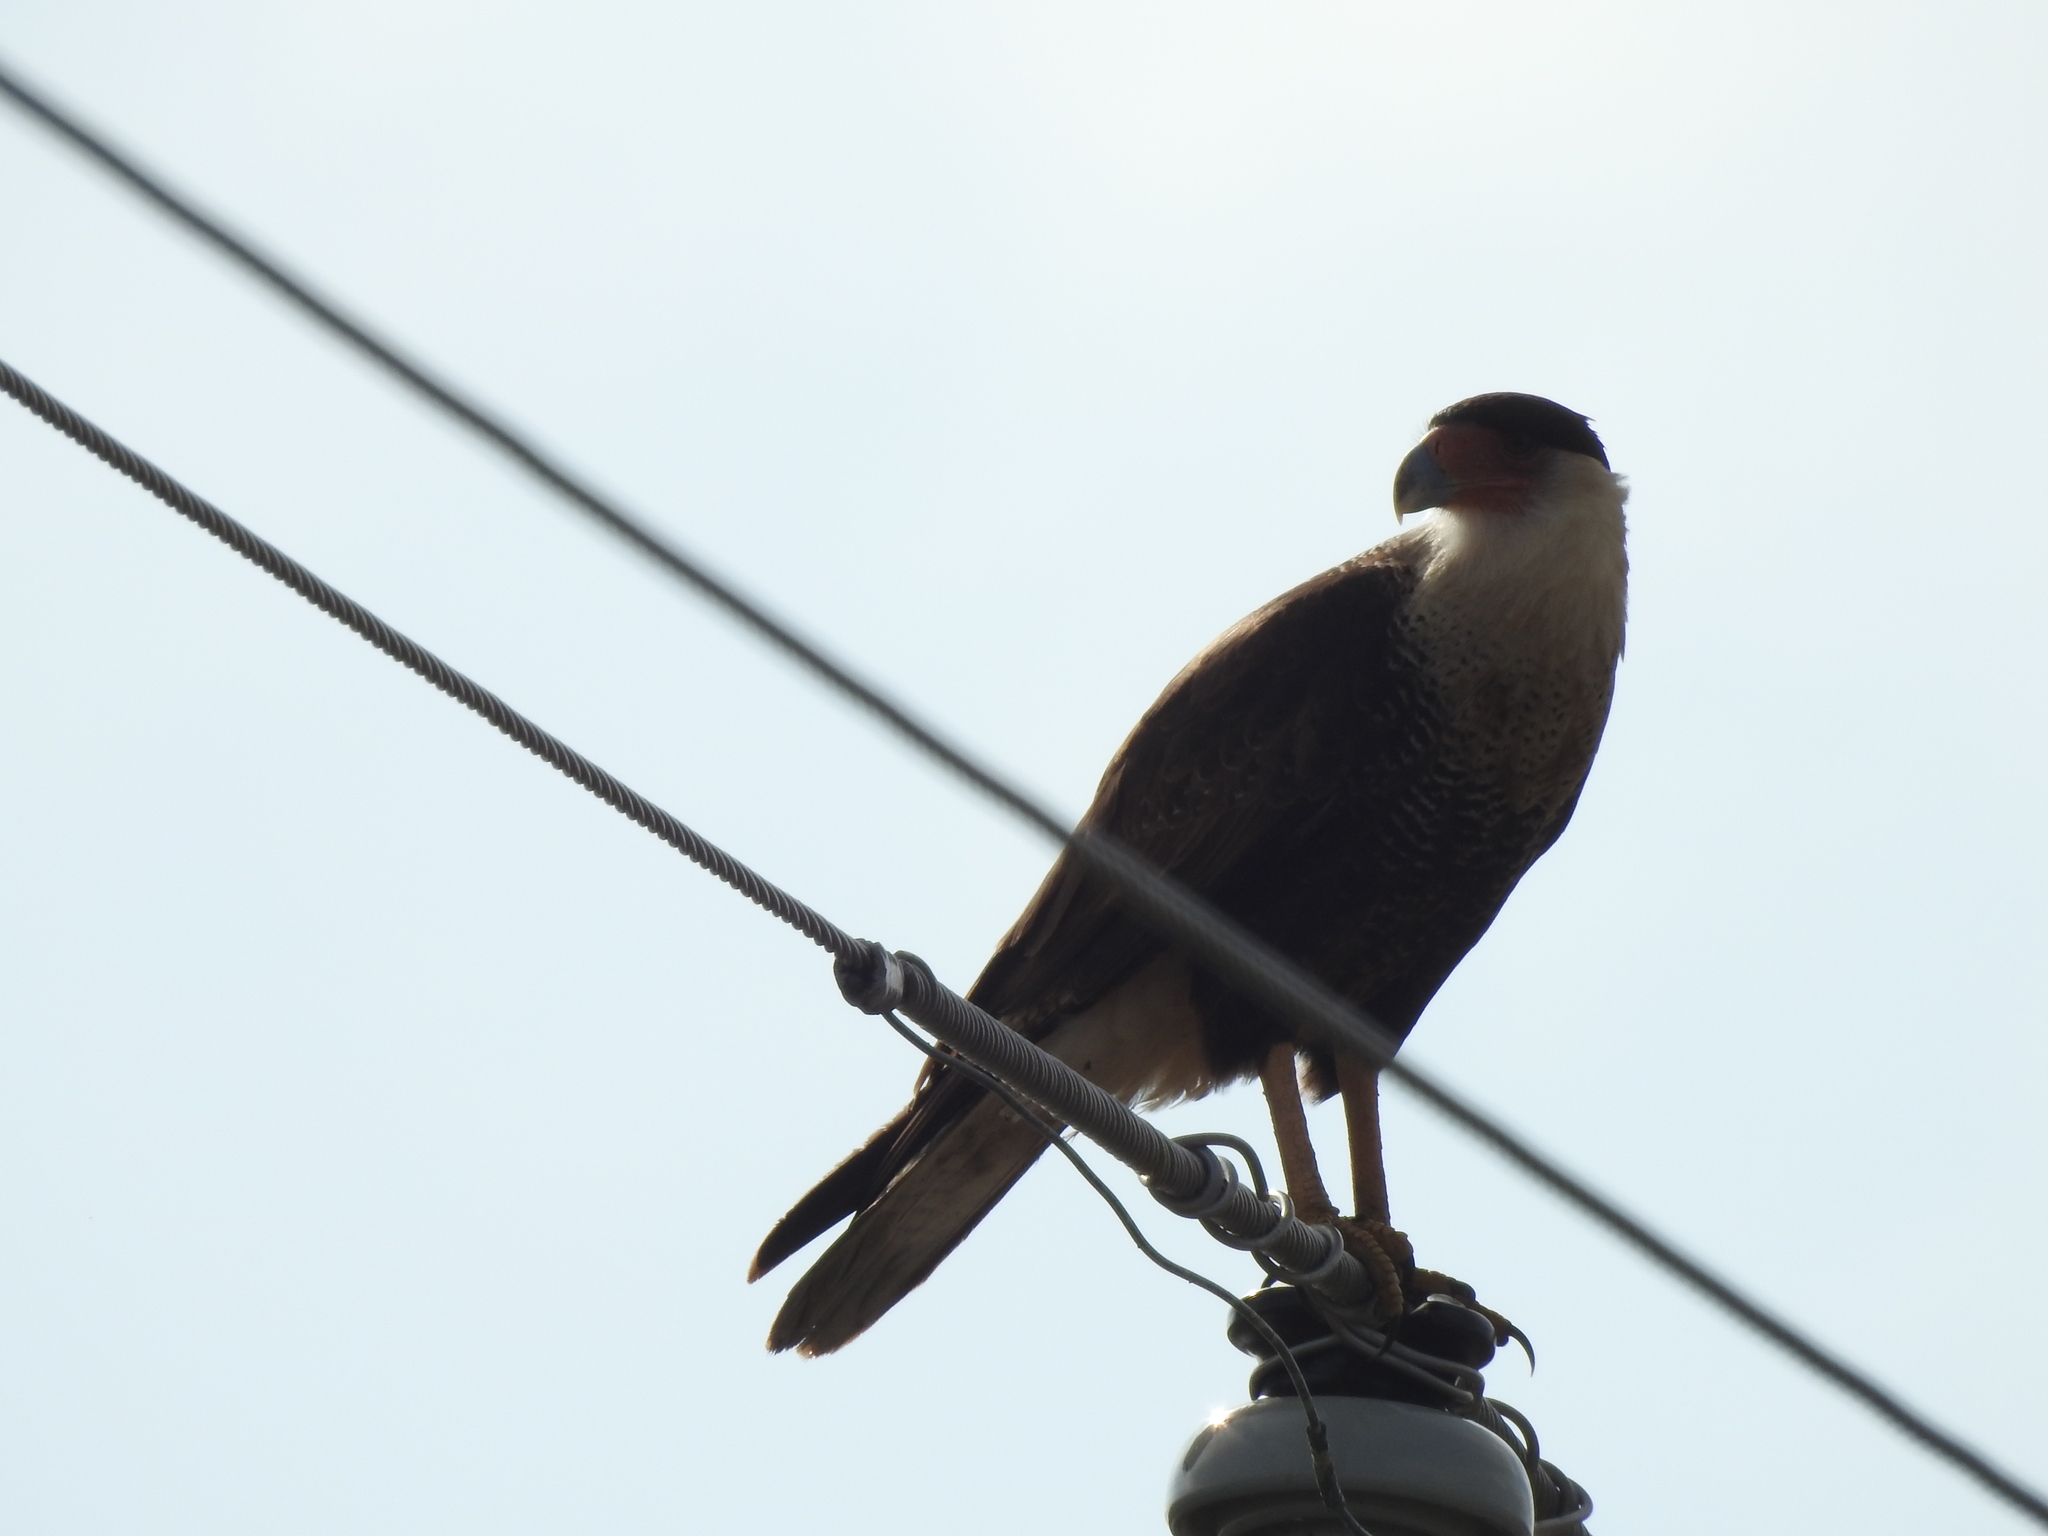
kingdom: Animalia
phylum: Chordata
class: Aves
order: Falconiformes
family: Falconidae
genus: Caracara
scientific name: Caracara plancus
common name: Southern caracara
